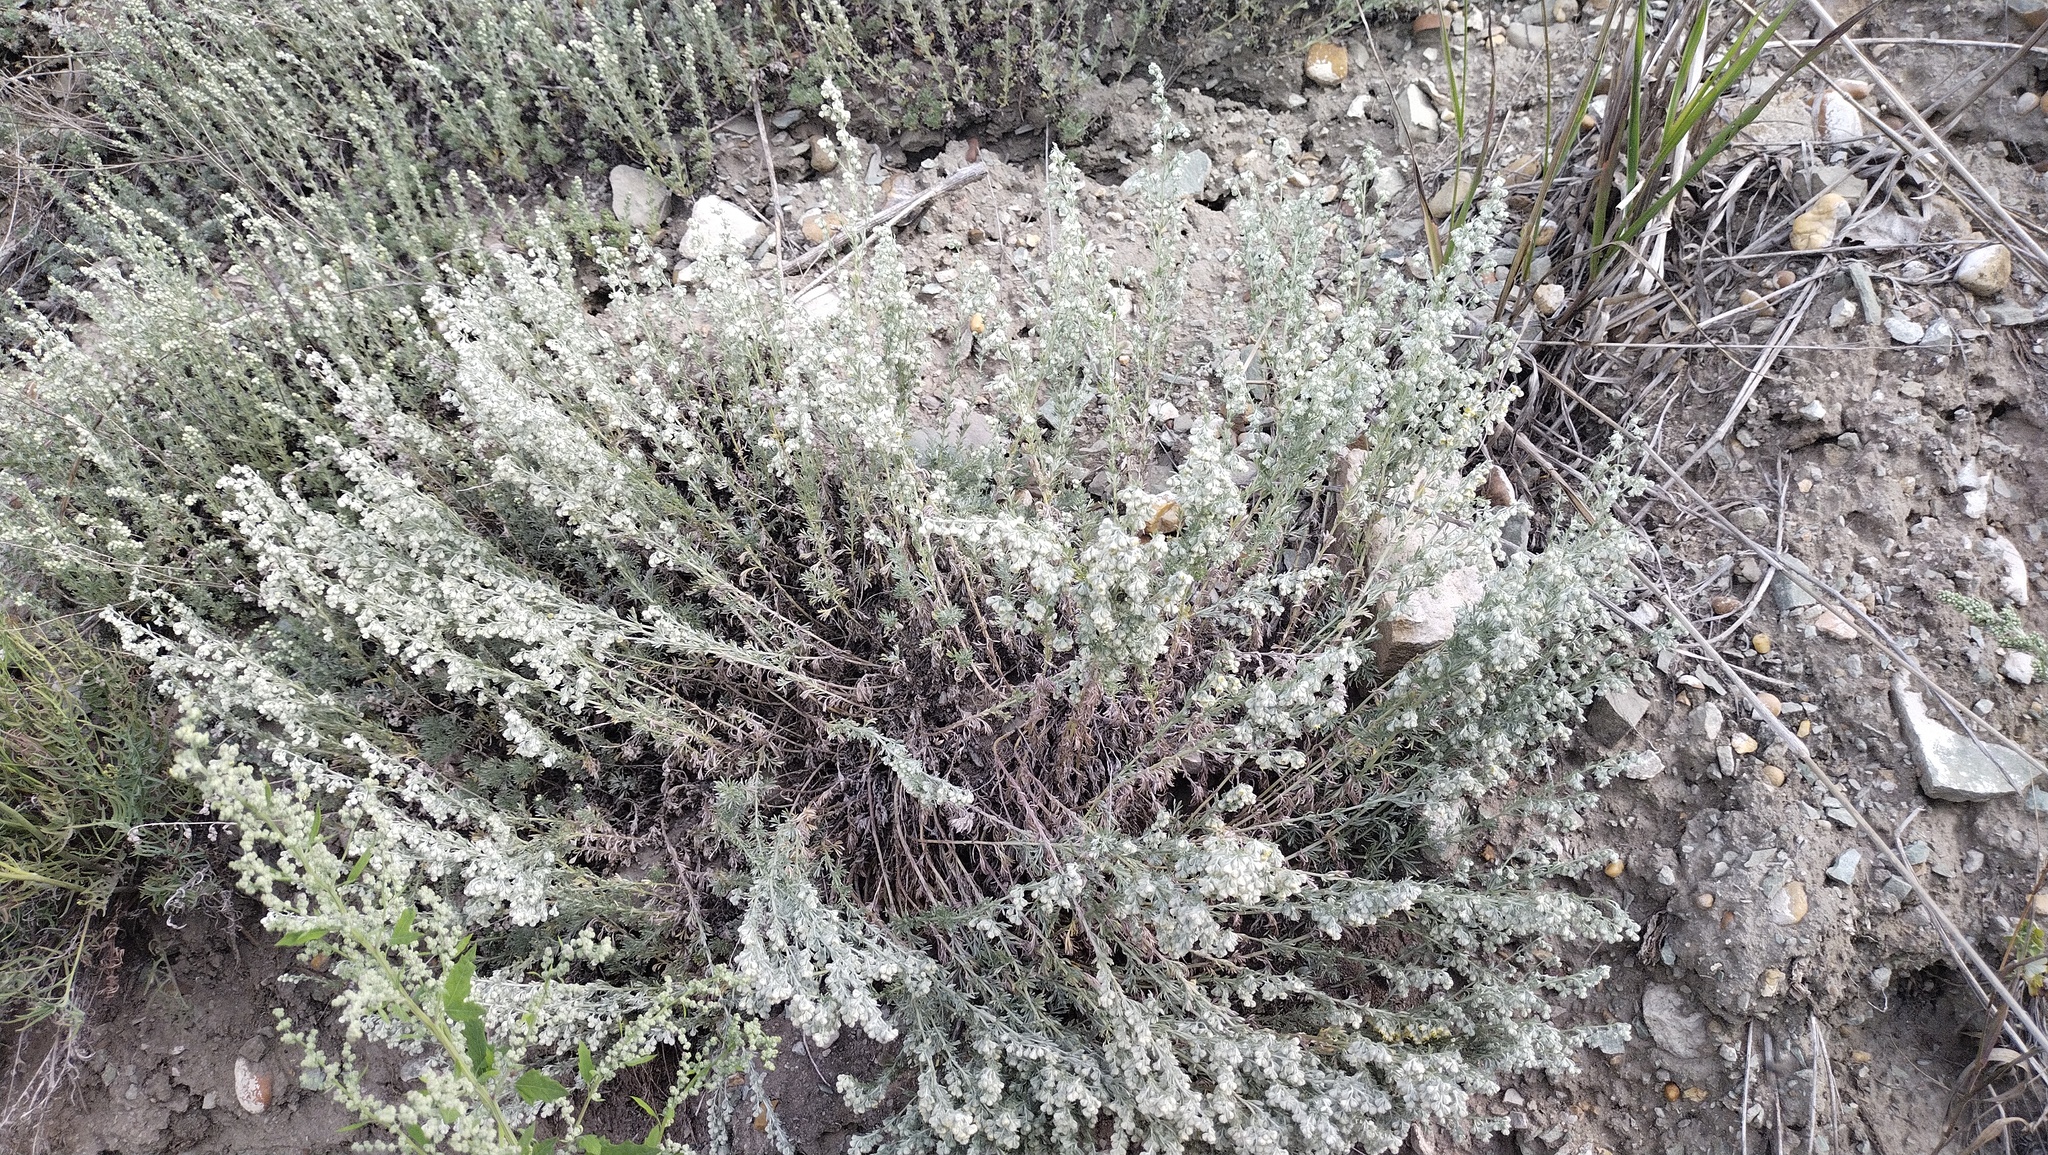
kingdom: Plantae
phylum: Tracheophyta
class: Magnoliopsida
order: Asterales
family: Asteraceae
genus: Artemisia
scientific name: Artemisia frigida
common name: Prairie sagewort
